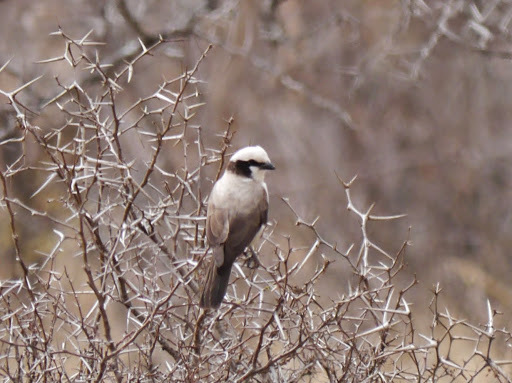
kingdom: Animalia
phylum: Chordata
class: Aves
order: Passeriformes
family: Laniidae
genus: Eurocephalus
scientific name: Eurocephalus anguitimens
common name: Southern white-crowned shrike
